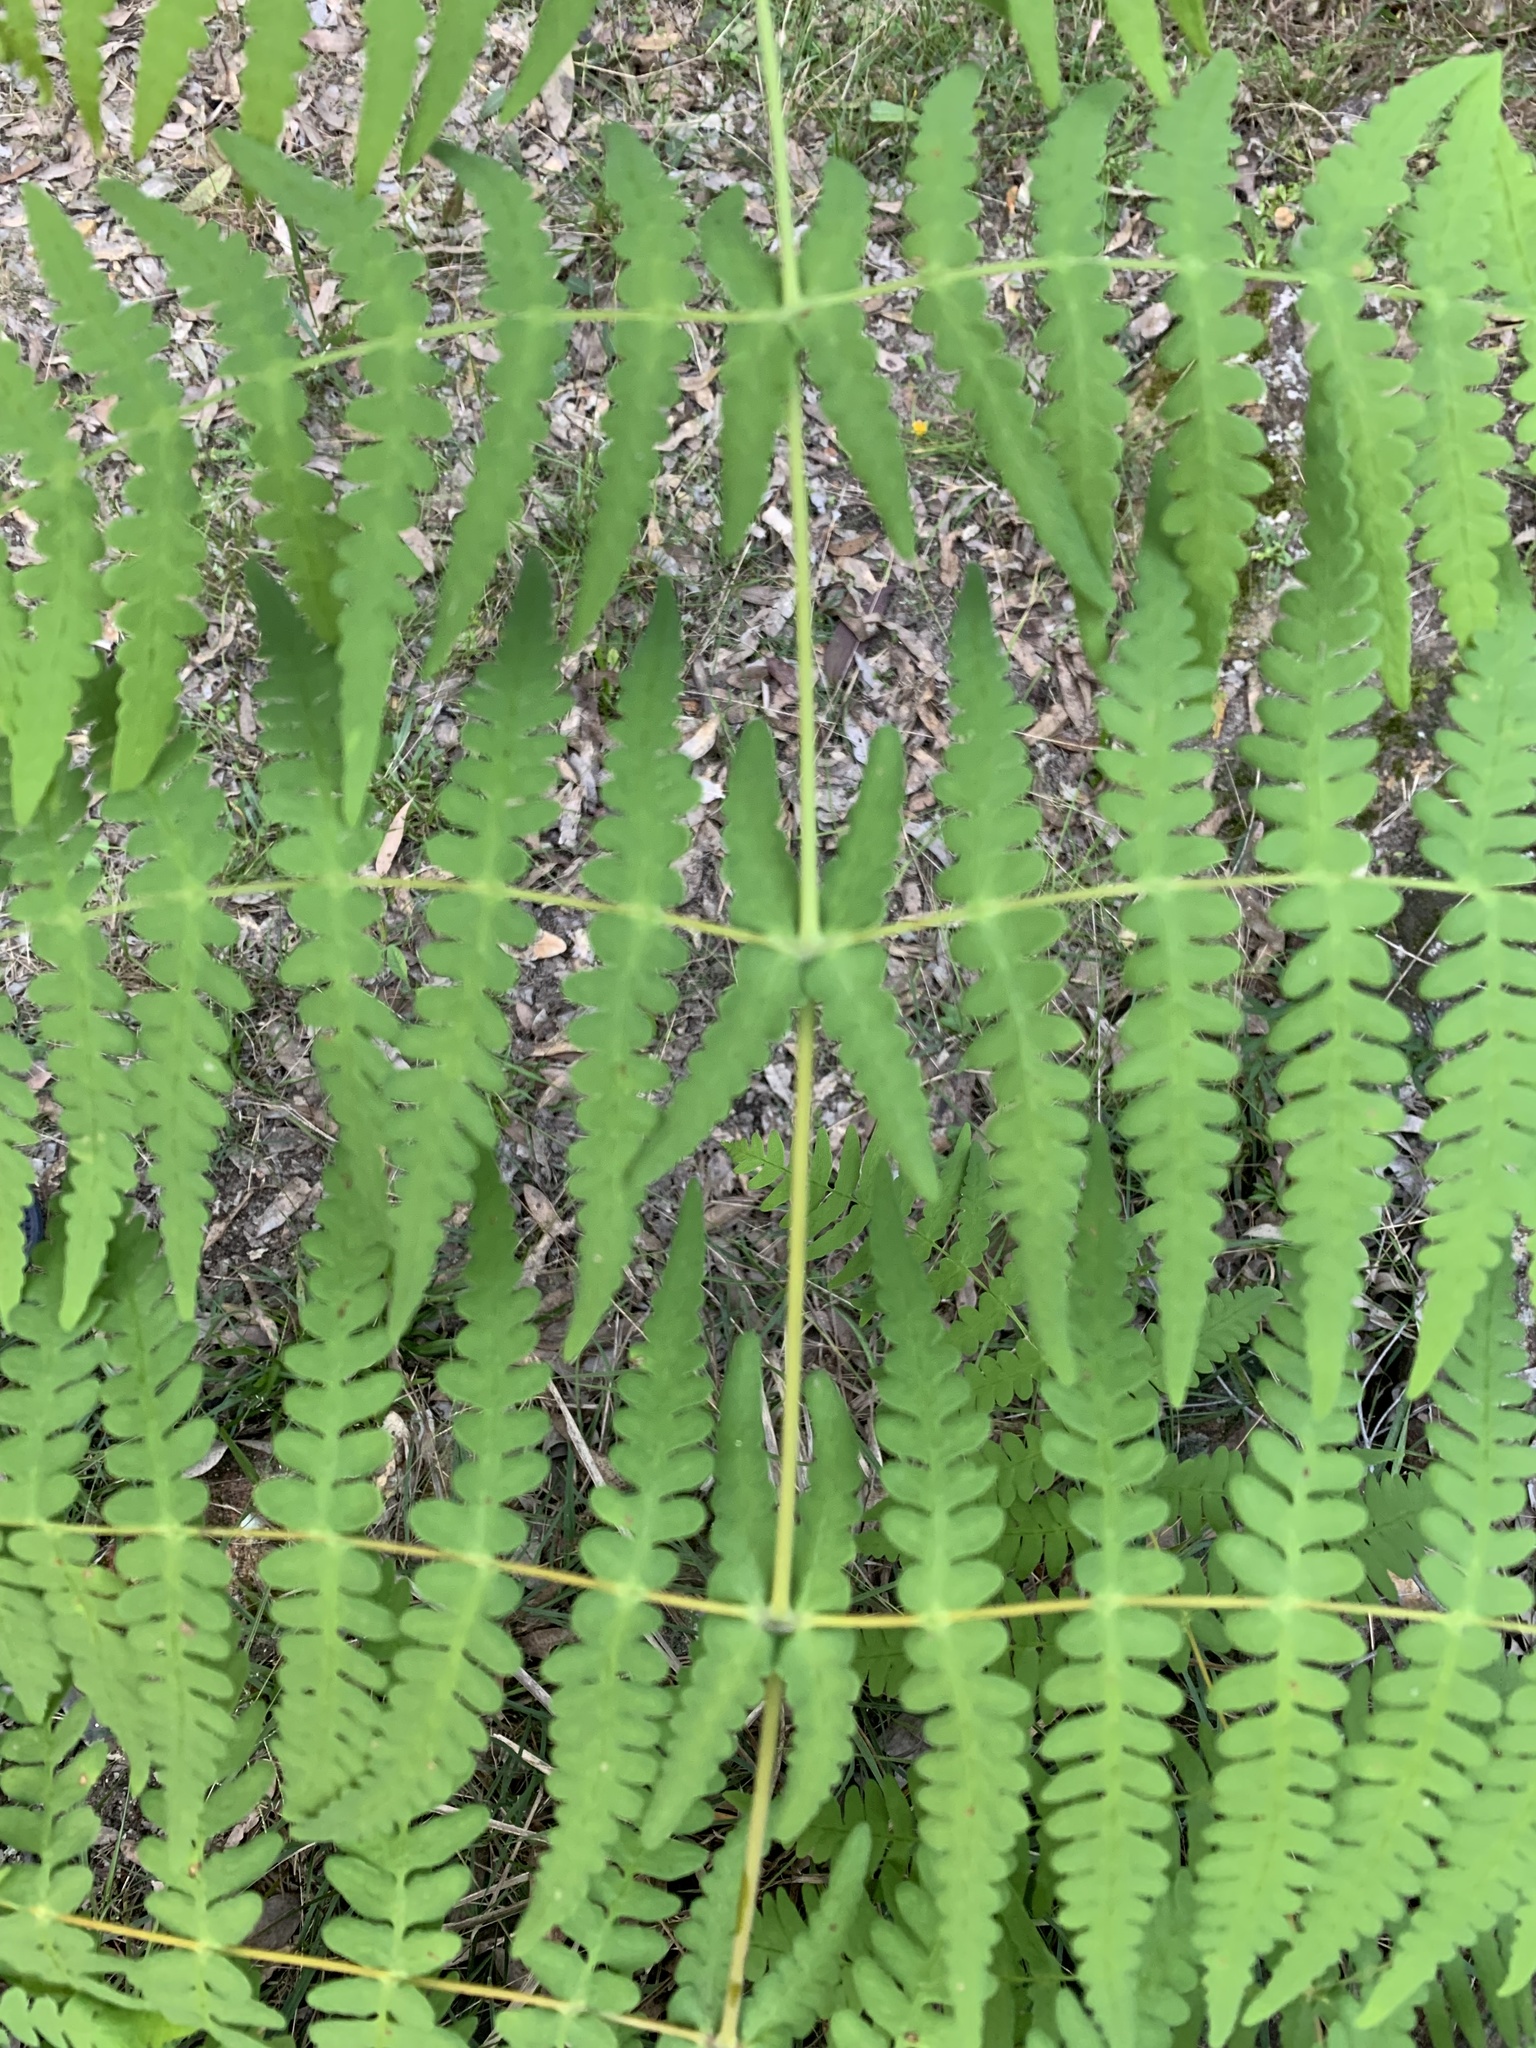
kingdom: Plantae
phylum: Tracheophyta
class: Polypodiopsida
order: Polypodiales
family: Dennstaedtiaceae
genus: Histiopteris
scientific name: Histiopteris incisa
